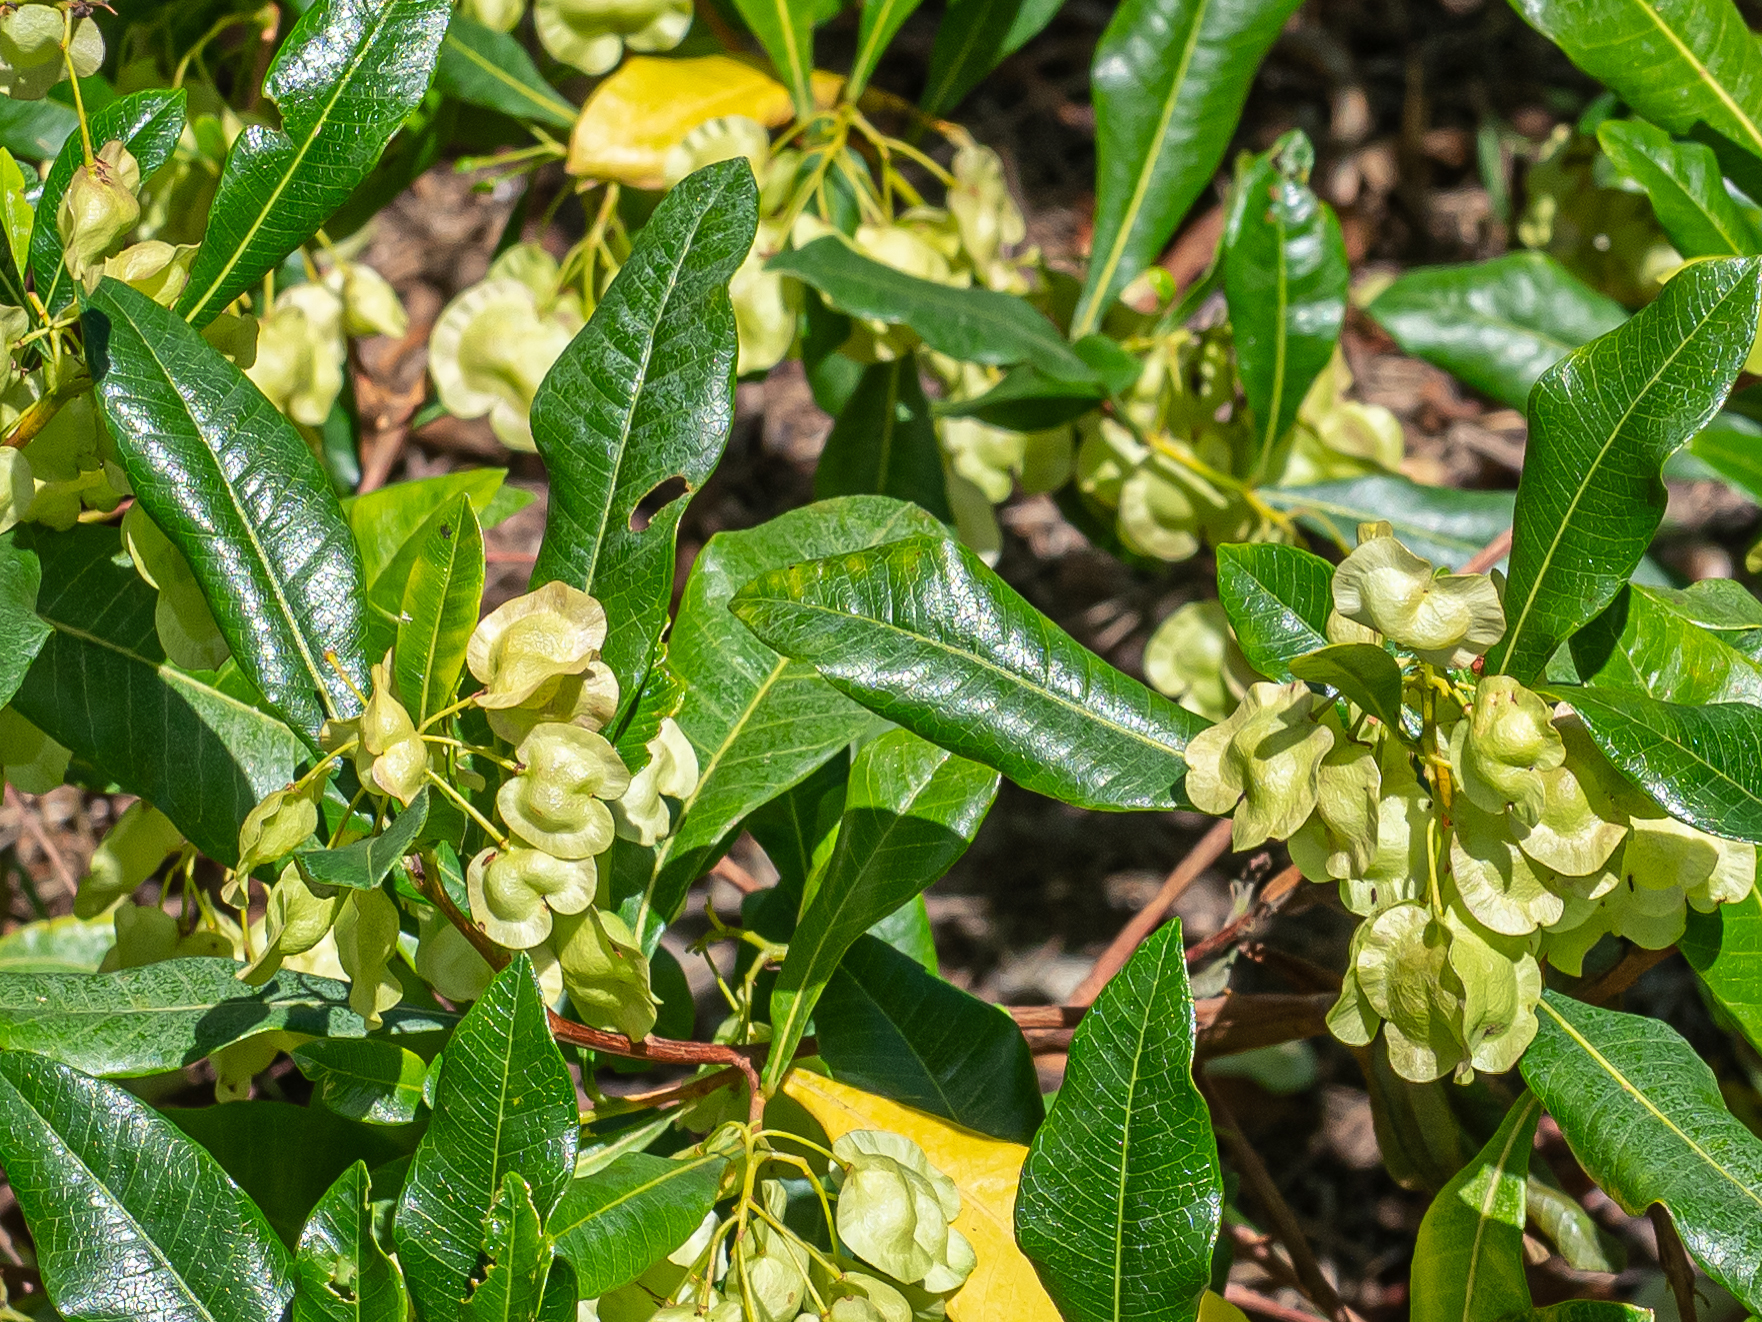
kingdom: Plantae
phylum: Tracheophyta
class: Magnoliopsida
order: Sapindales
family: Sapindaceae
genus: Dodonaea
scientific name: Dodonaea viscosa
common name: Hopbush
